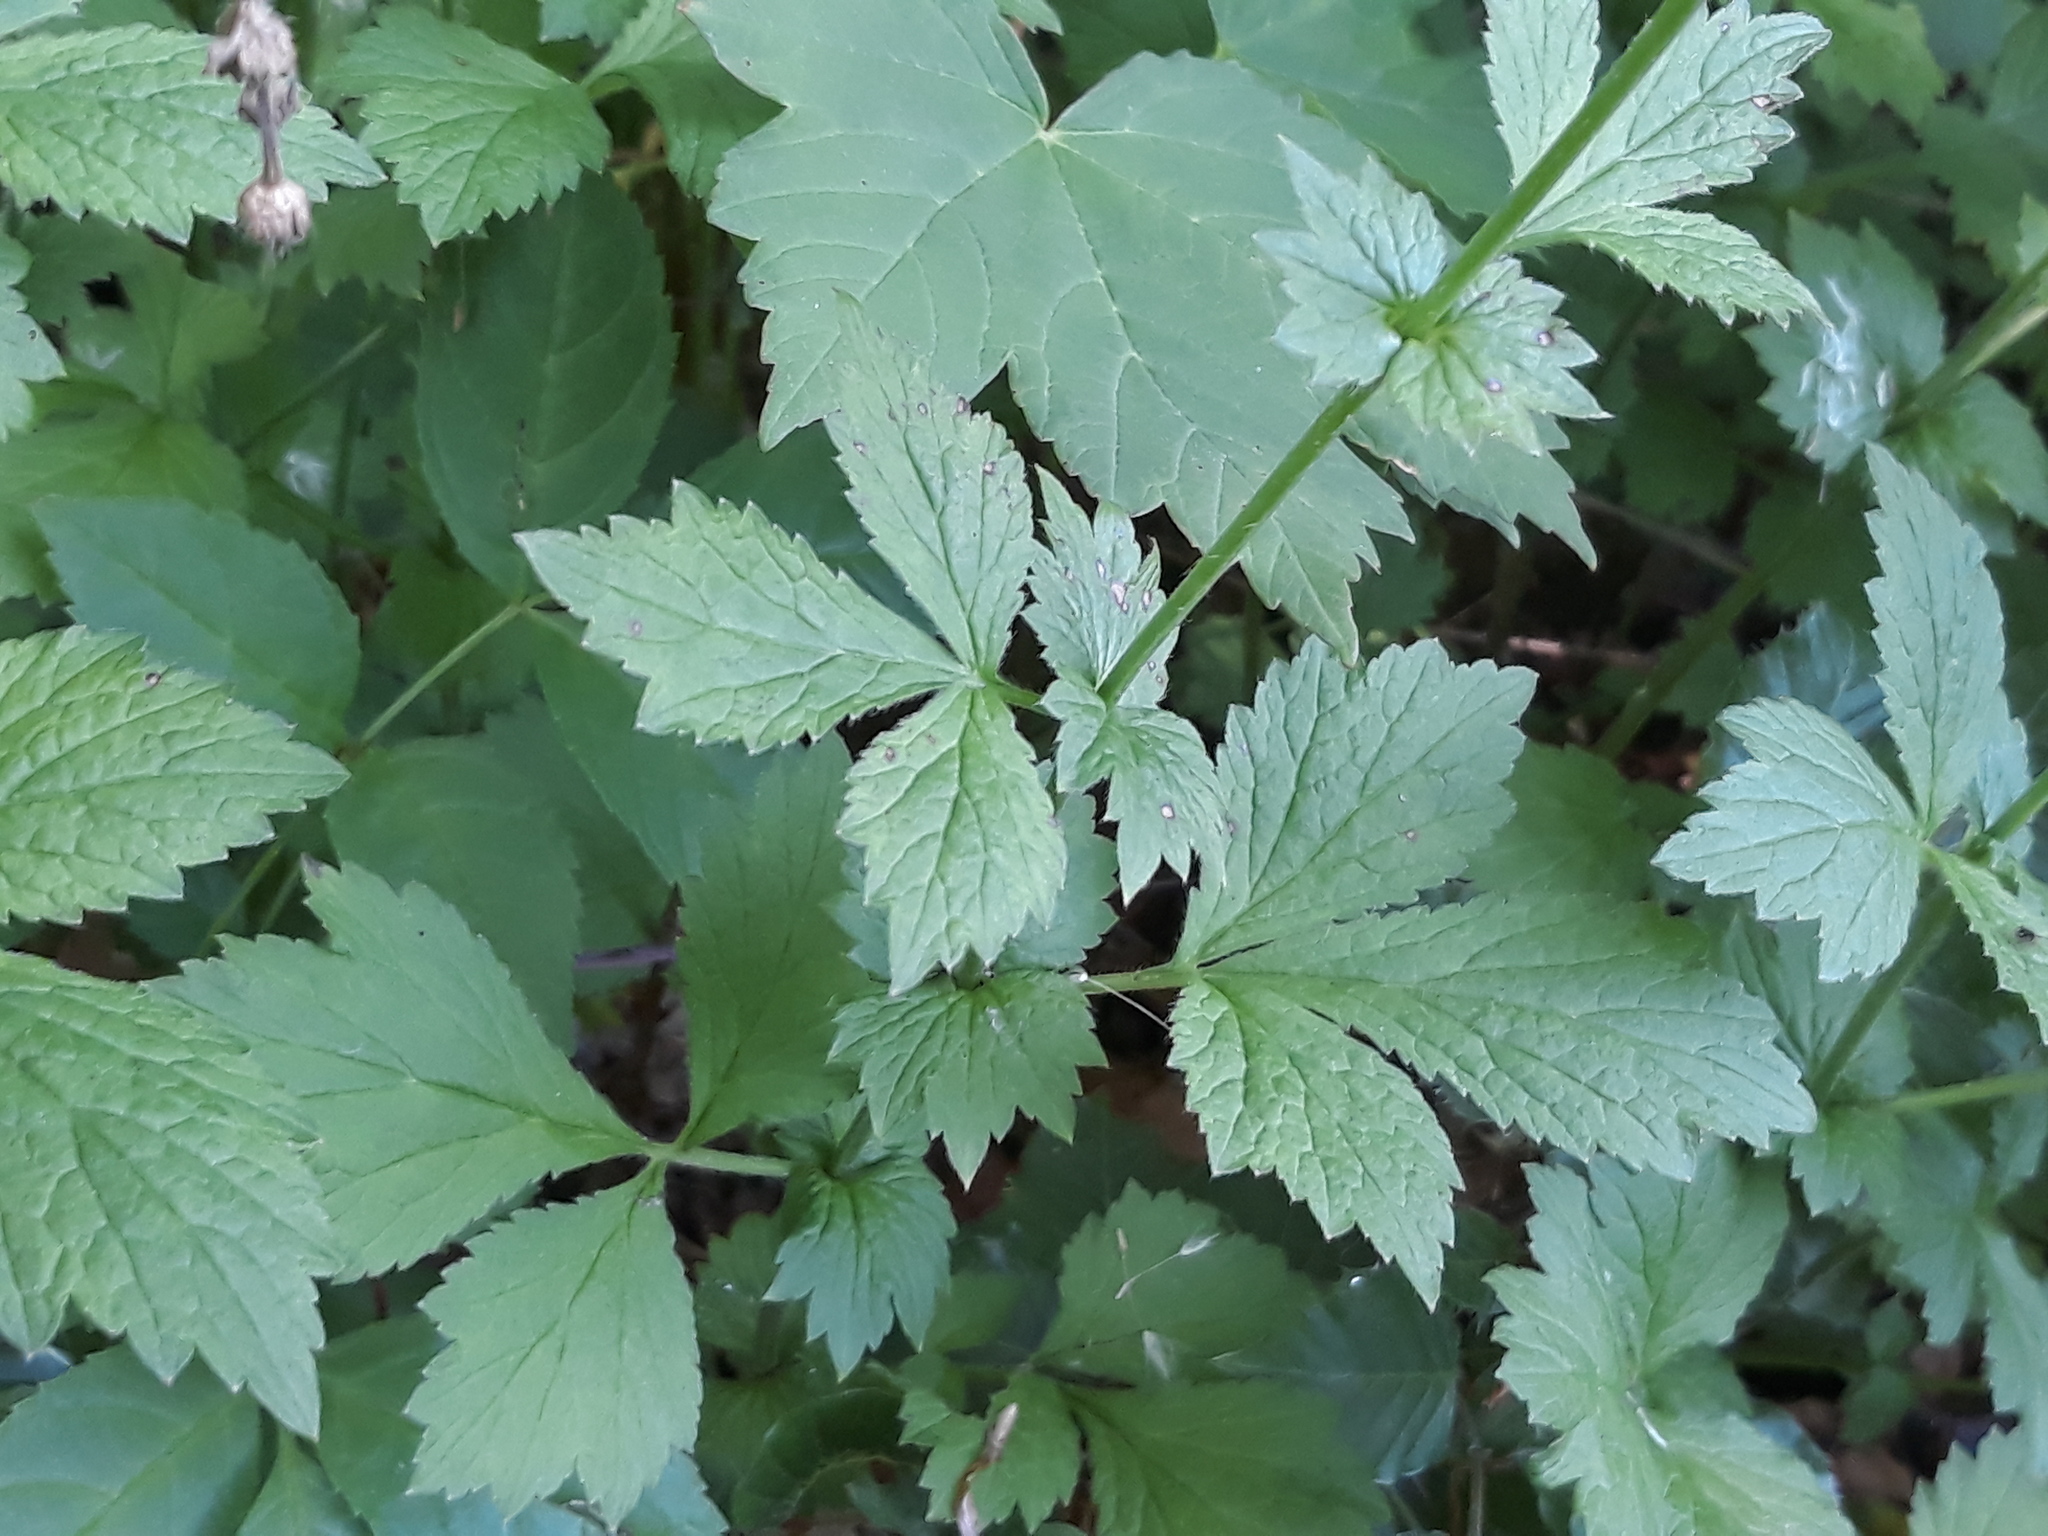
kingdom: Plantae
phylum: Tracheophyta
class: Magnoliopsida
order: Rosales
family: Rosaceae
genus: Geum
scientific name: Geum urbanum
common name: Wood avens
